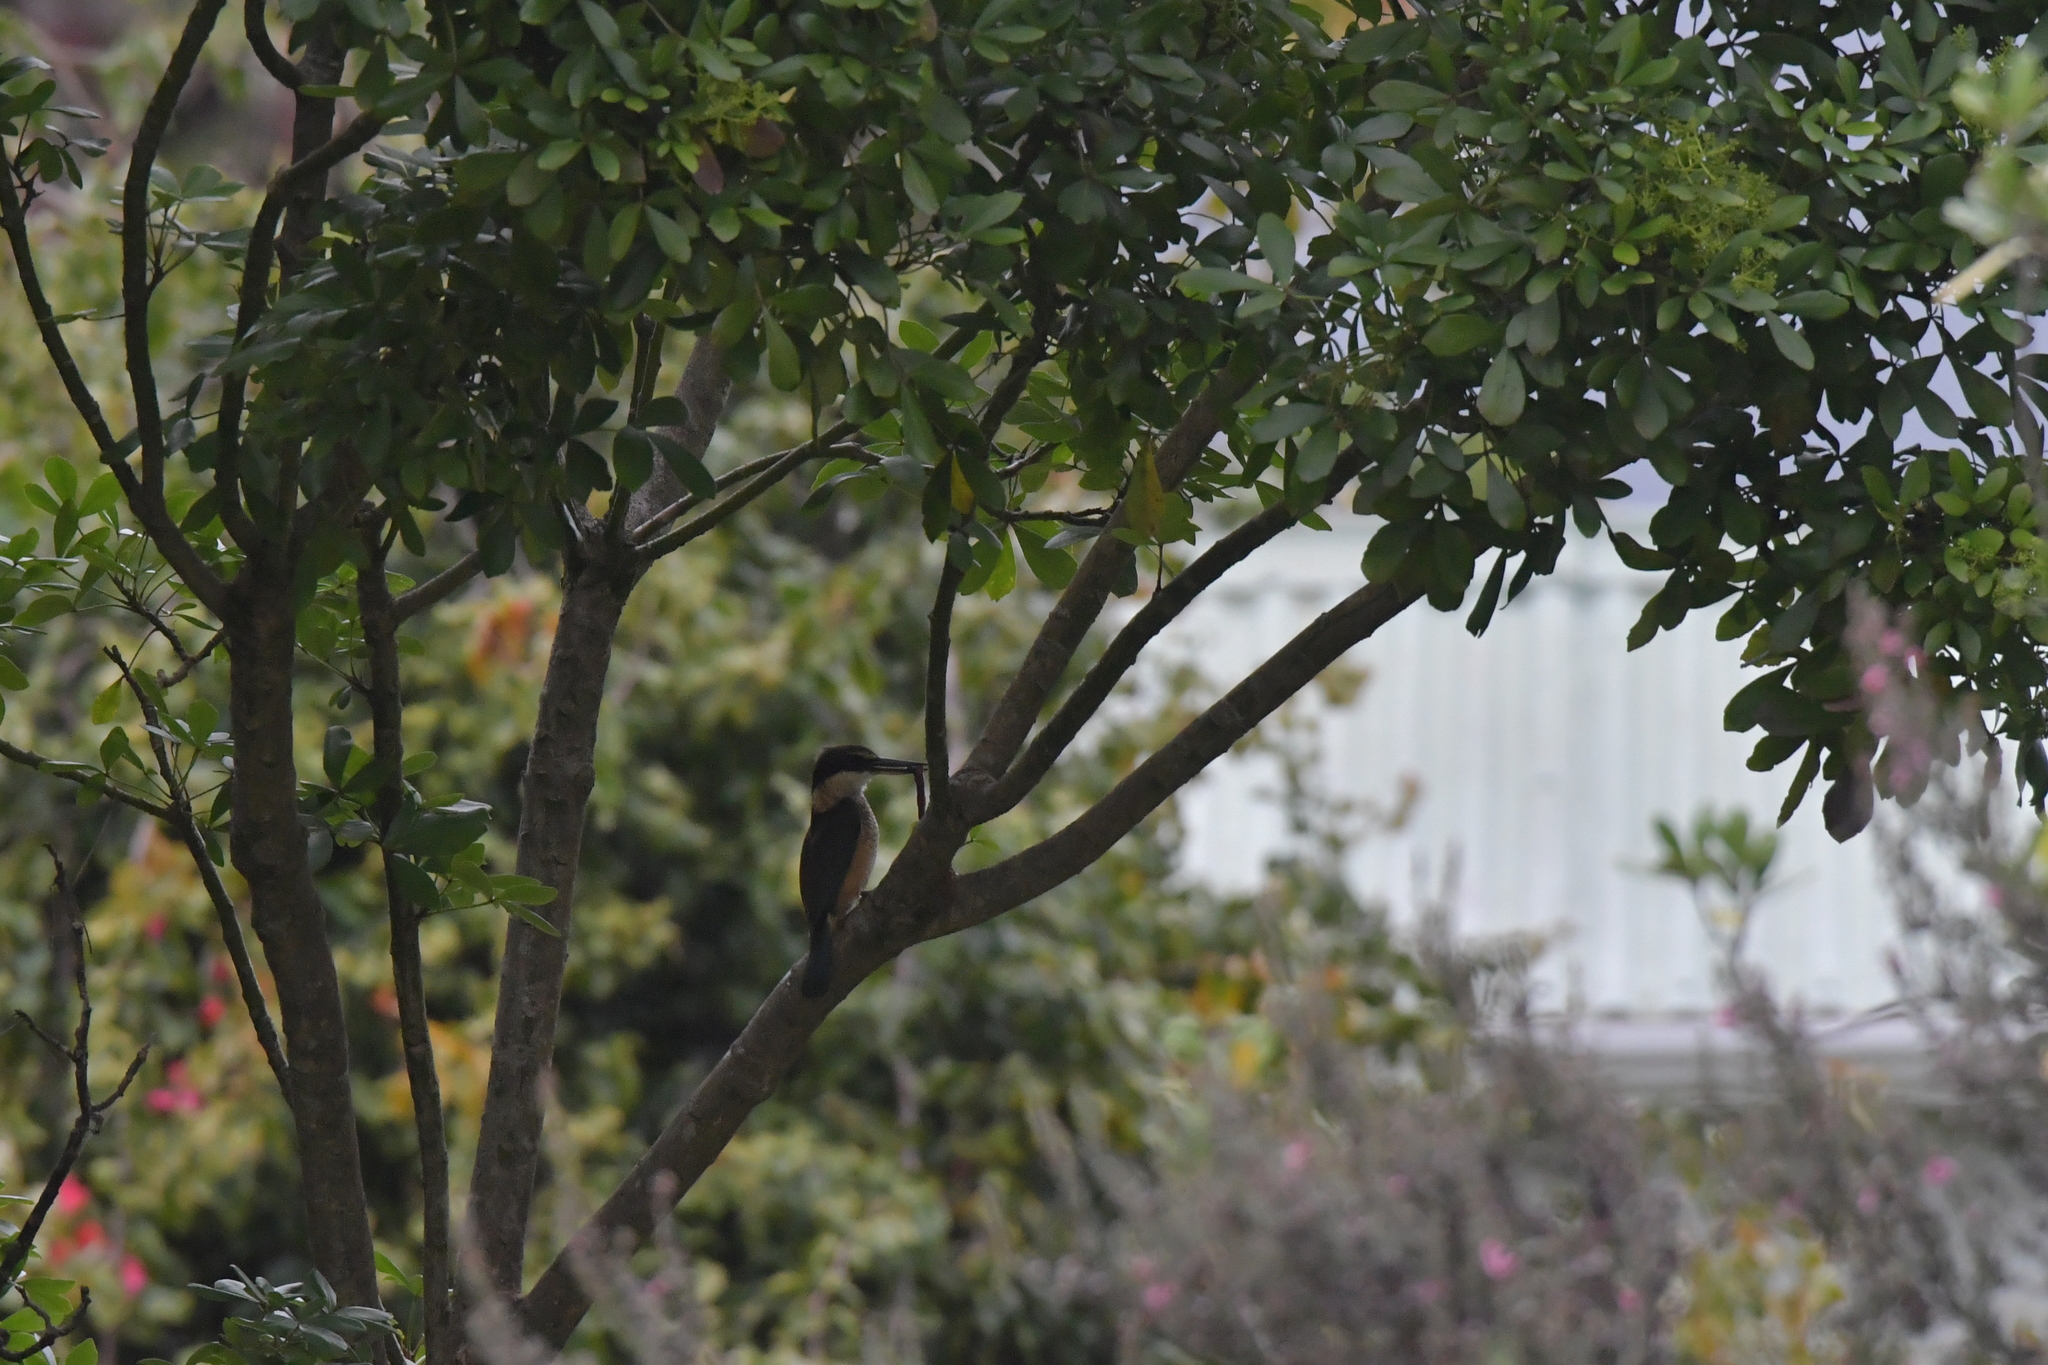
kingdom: Animalia
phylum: Chordata
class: Aves
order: Coraciiformes
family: Alcedinidae
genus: Todiramphus
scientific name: Todiramphus sanctus
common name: Sacred kingfisher
